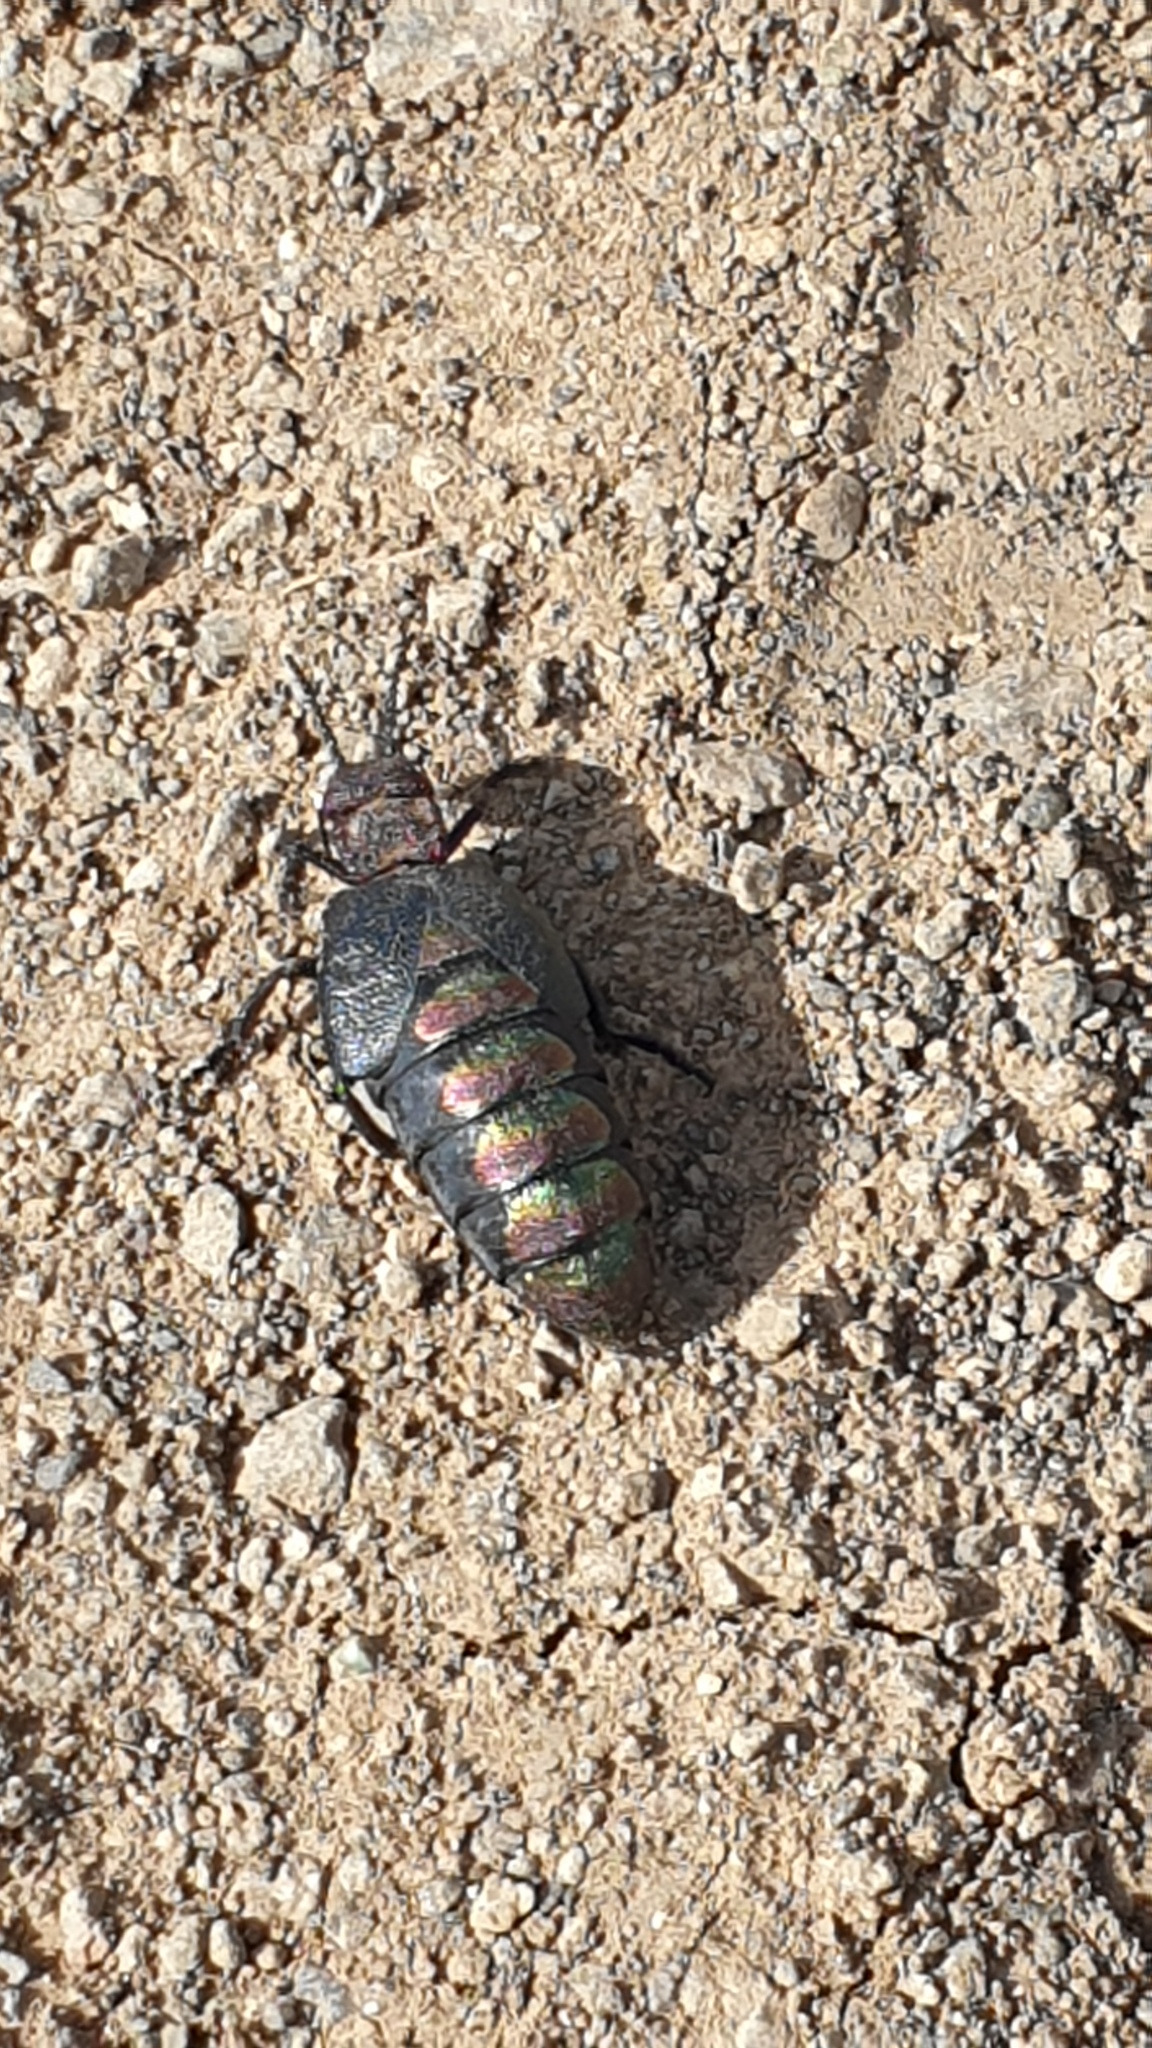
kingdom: Animalia
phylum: Arthropoda
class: Insecta
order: Coleoptera
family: Meloidae
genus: Meloe
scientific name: Meloe variegatus
